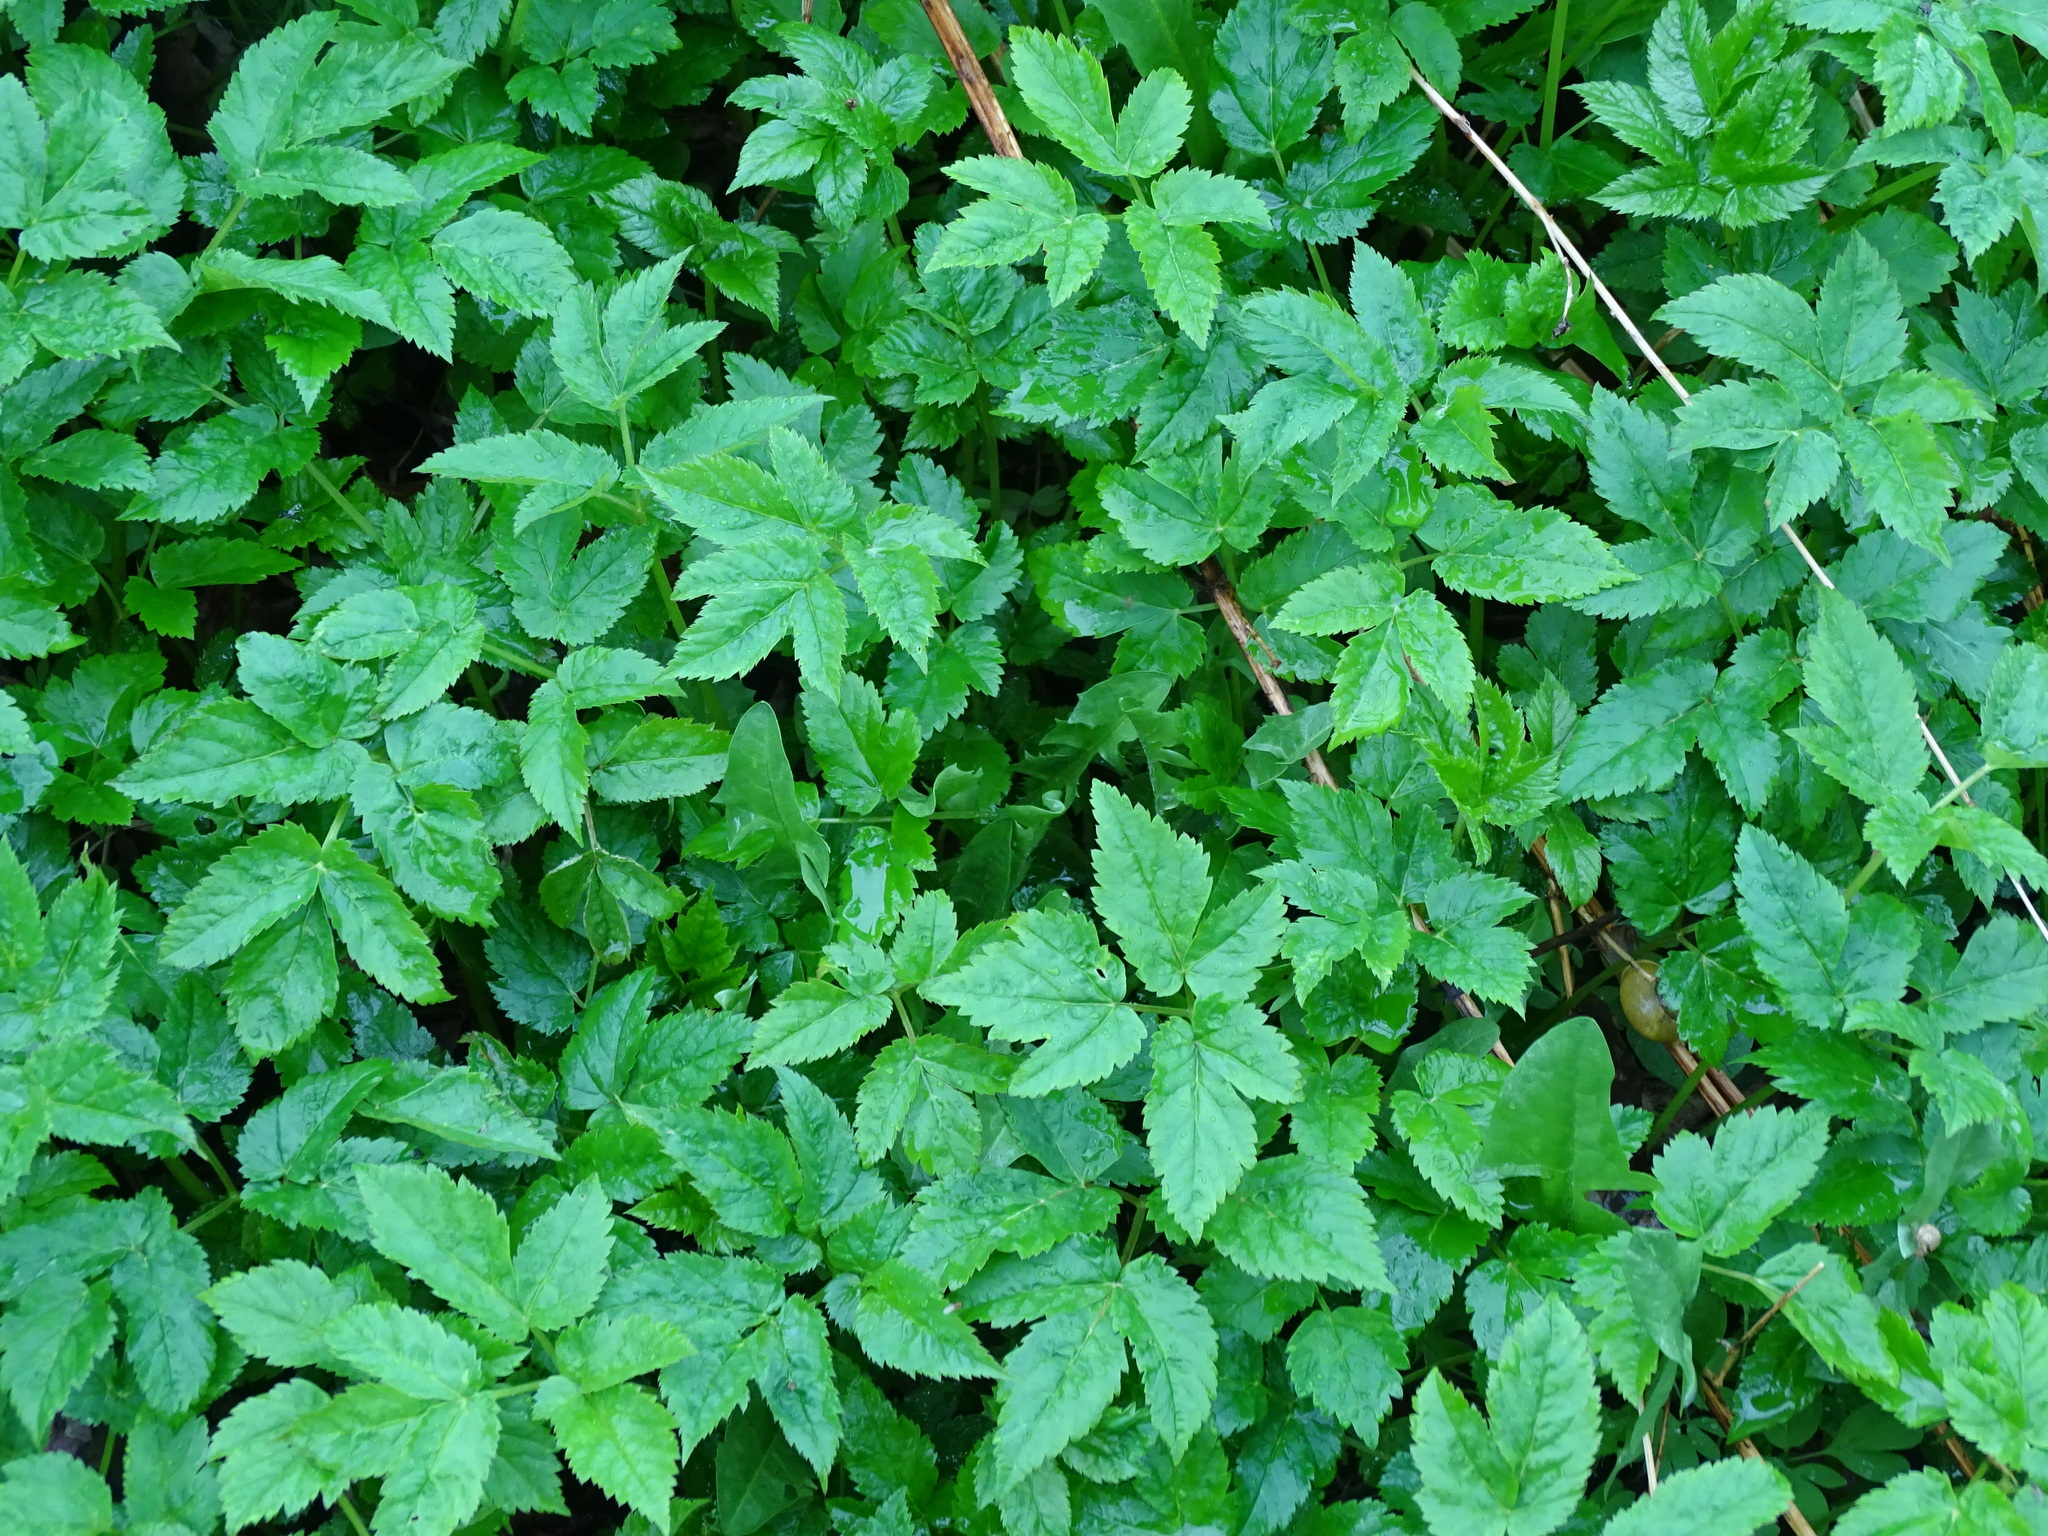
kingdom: Plantae
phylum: Tracheophyta
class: Magnoliopsida
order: Apiales
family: Apiaceae
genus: Aegopodium
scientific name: Aegopodium podagraria
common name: Ground-elder
